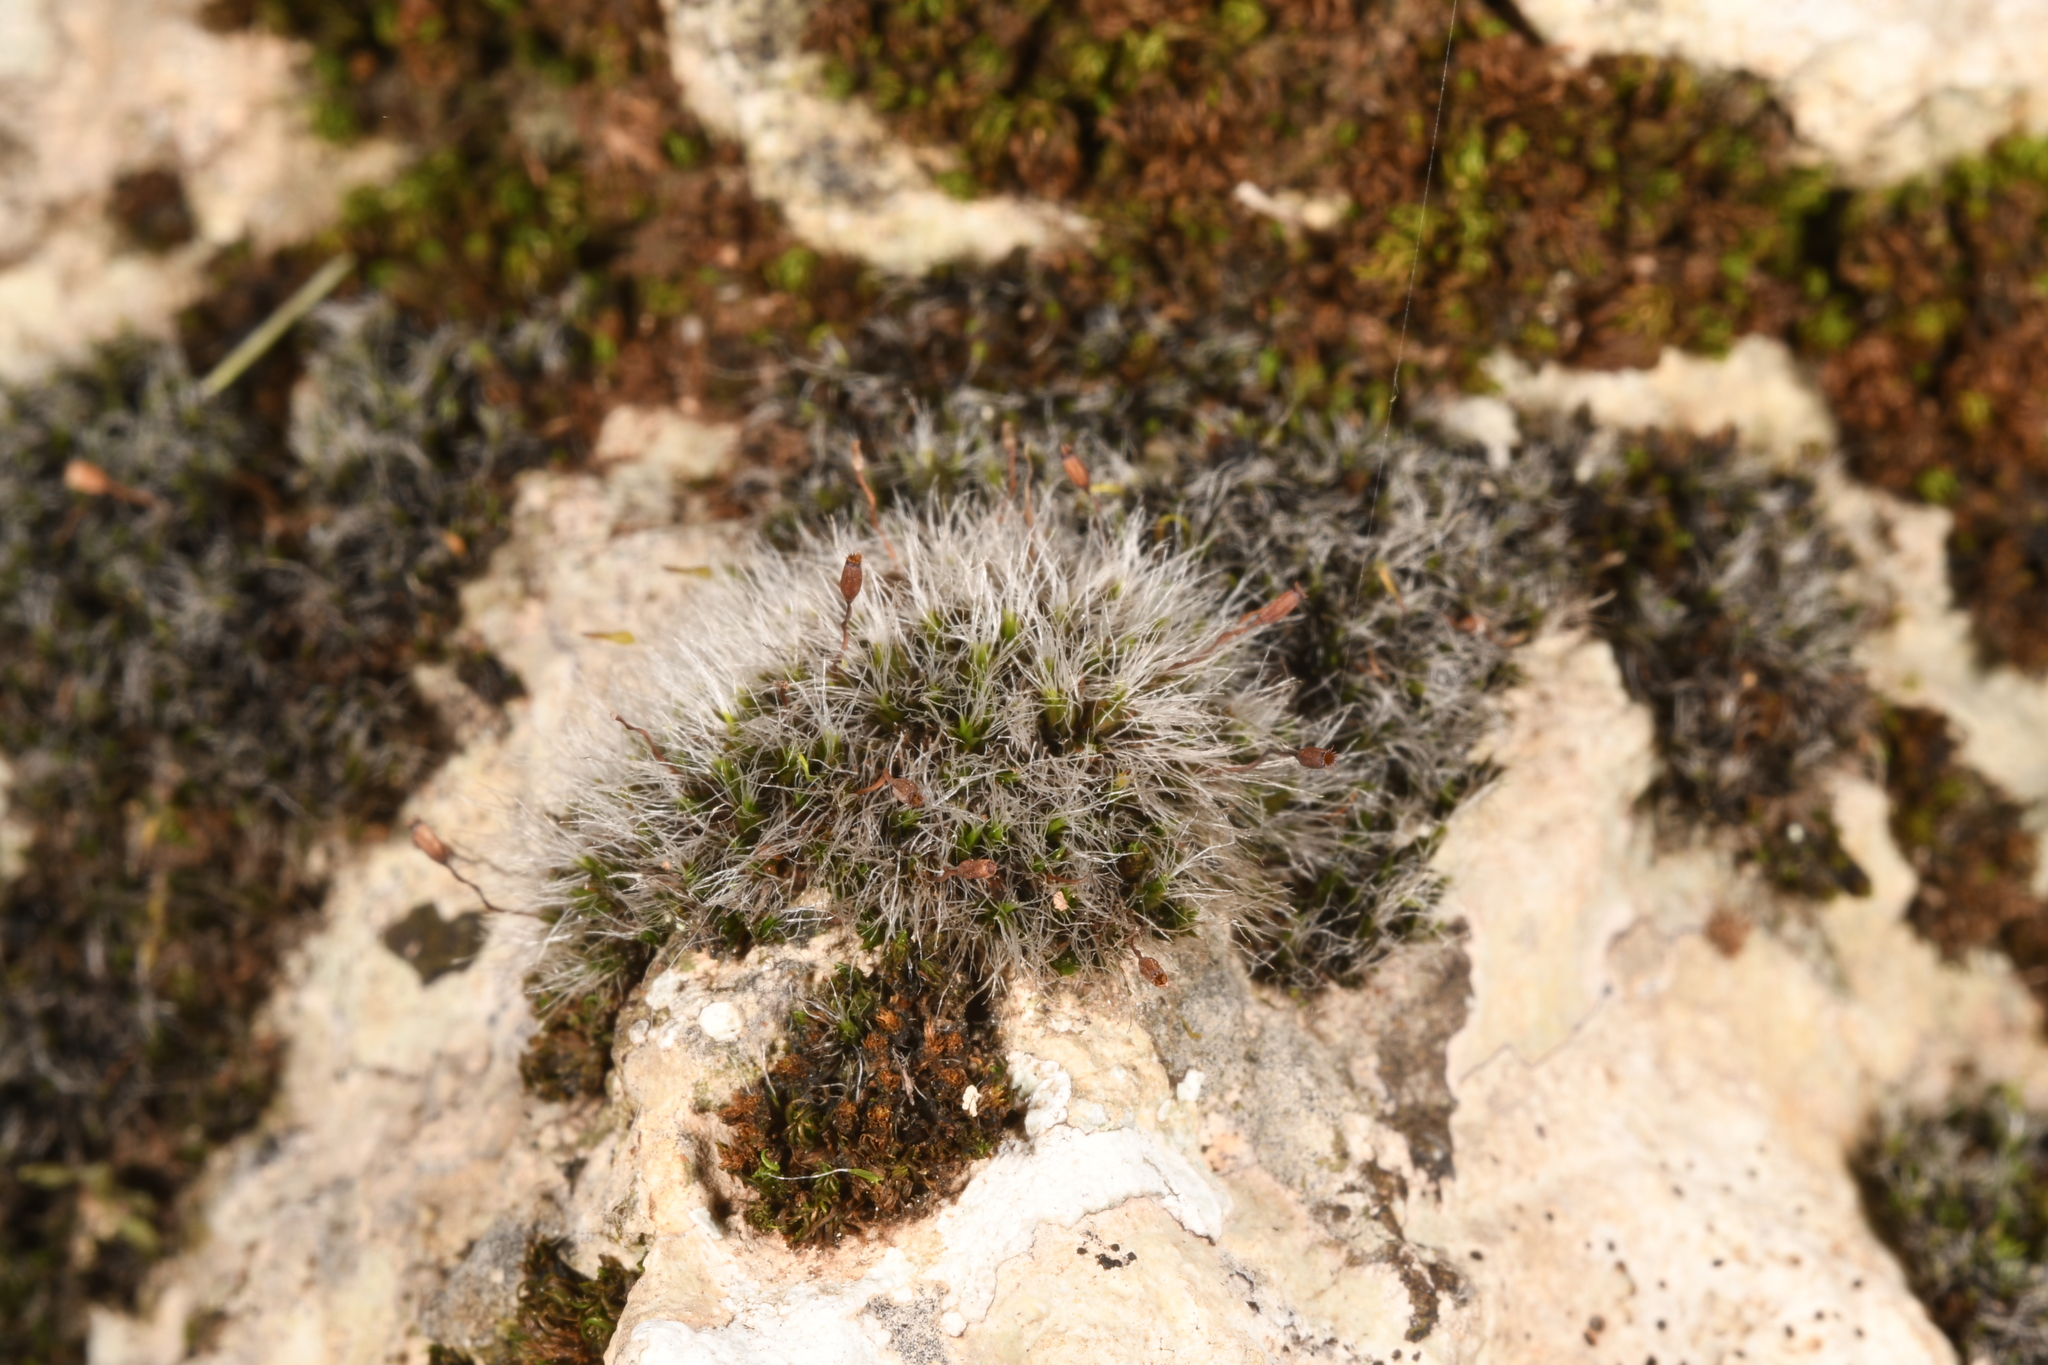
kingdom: Plantae
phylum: Bryophyta
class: Bryopsida
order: Grimmiales
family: Grimmiaceae
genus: Grimmia
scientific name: Grimmia pulvinata
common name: Grey-cushioned grimmia
